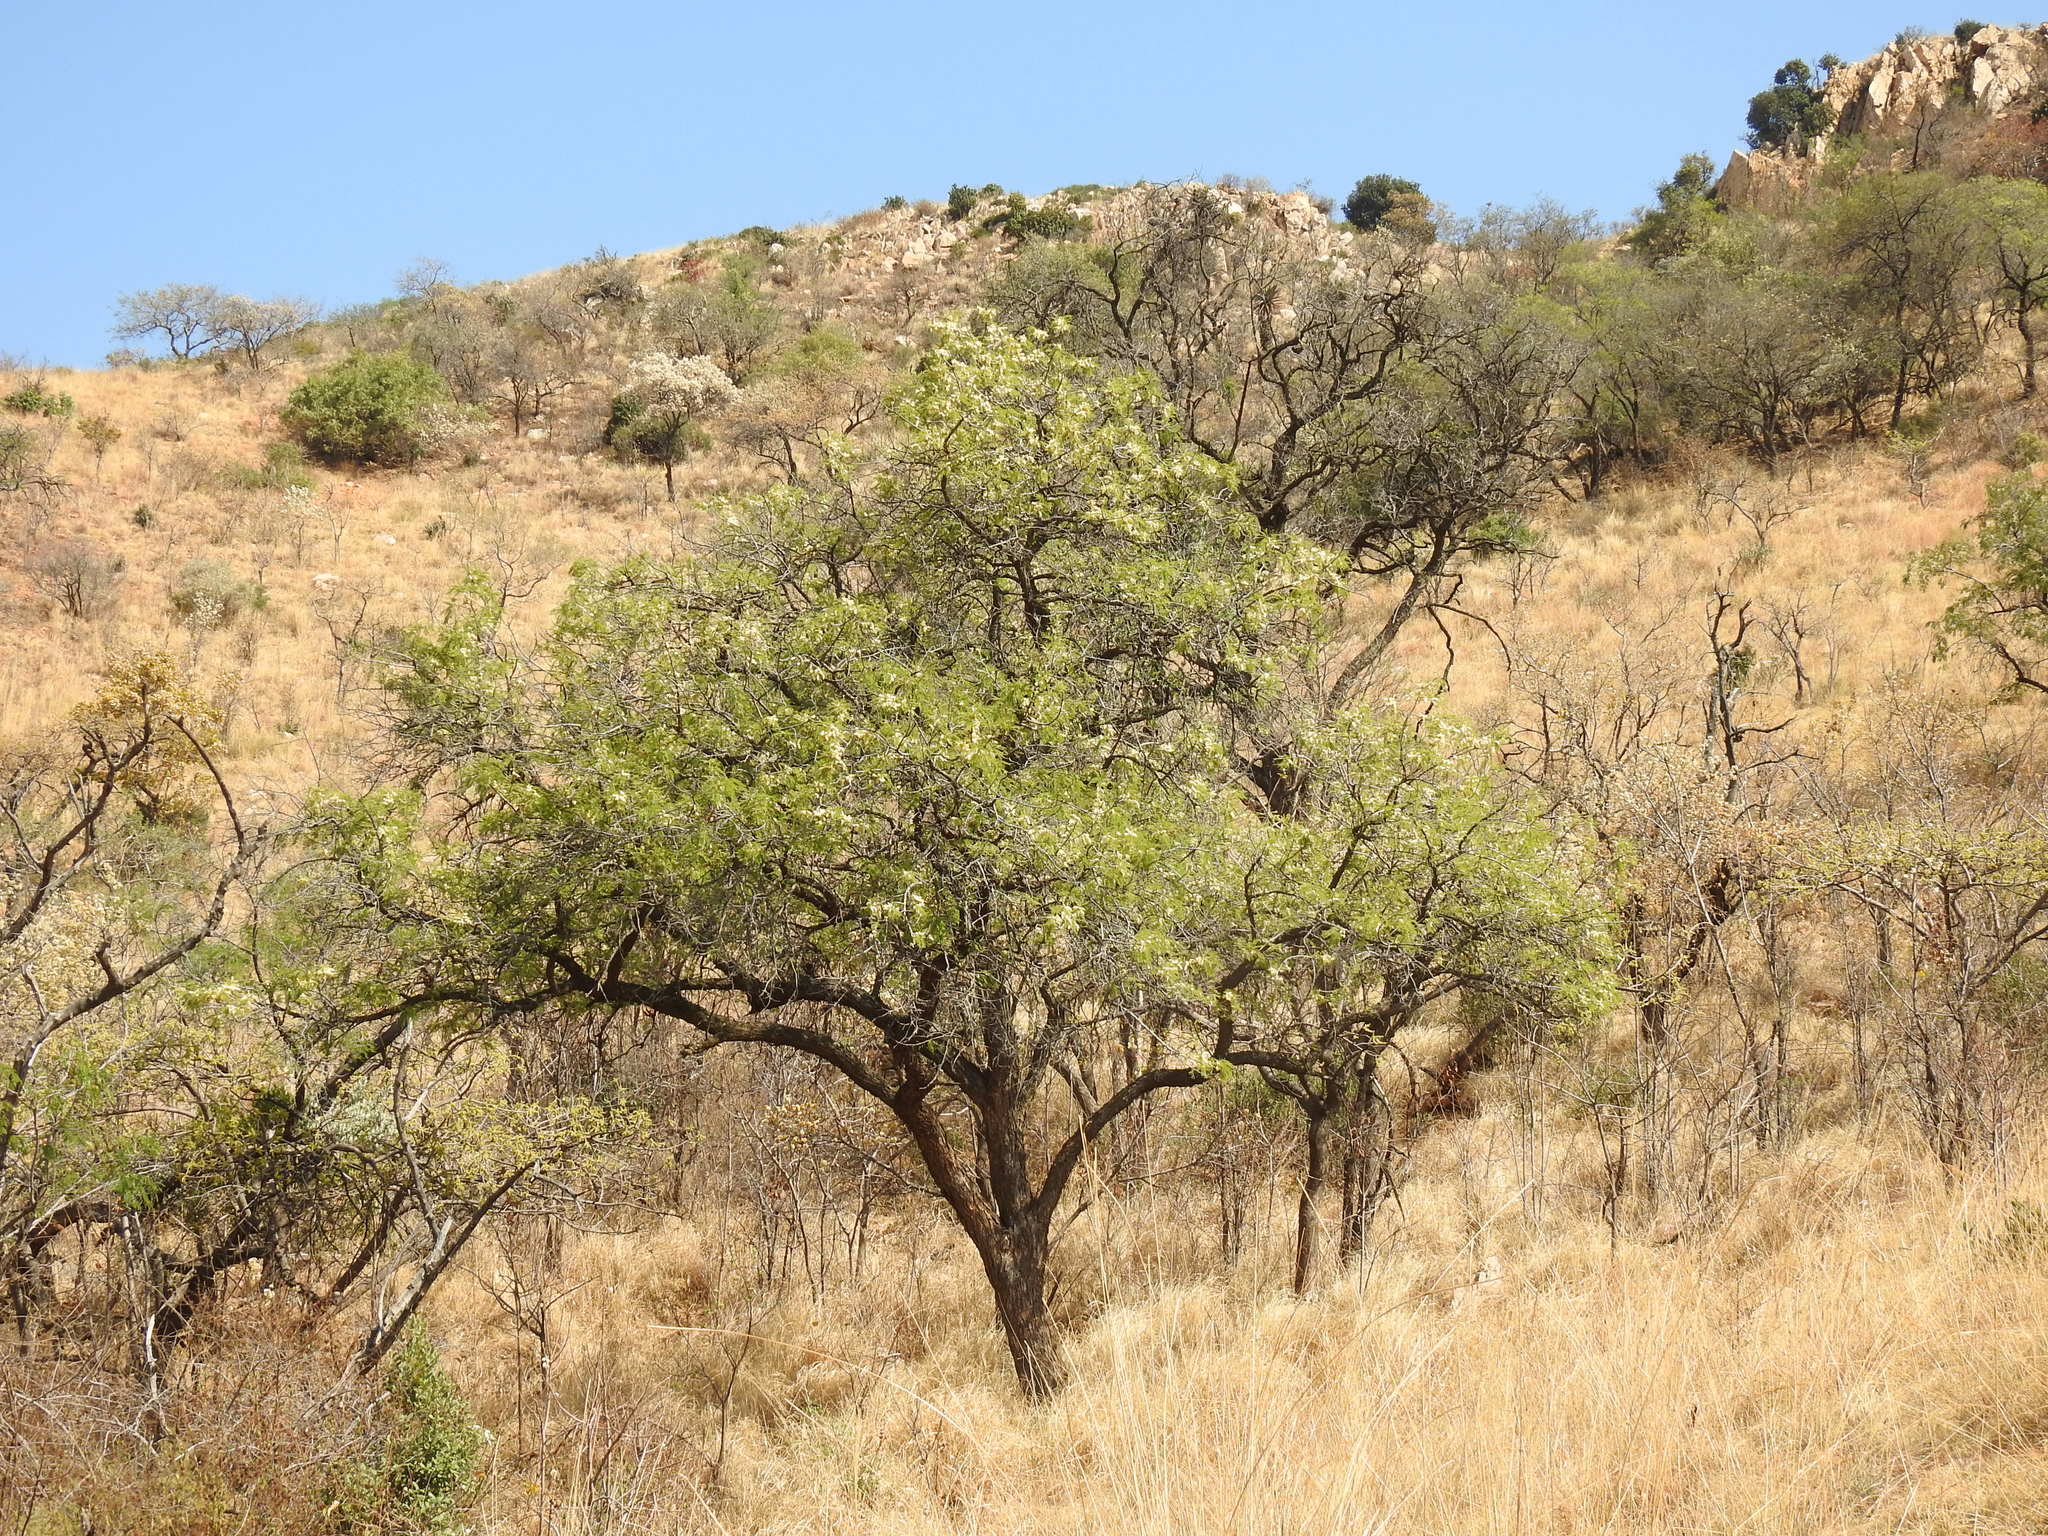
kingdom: Plantae
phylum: Tracheophyta
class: Magnoliopsida
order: Fabales
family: Fabaceae
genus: Senegalia
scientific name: Senegalia caffra
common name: Cat thorn
